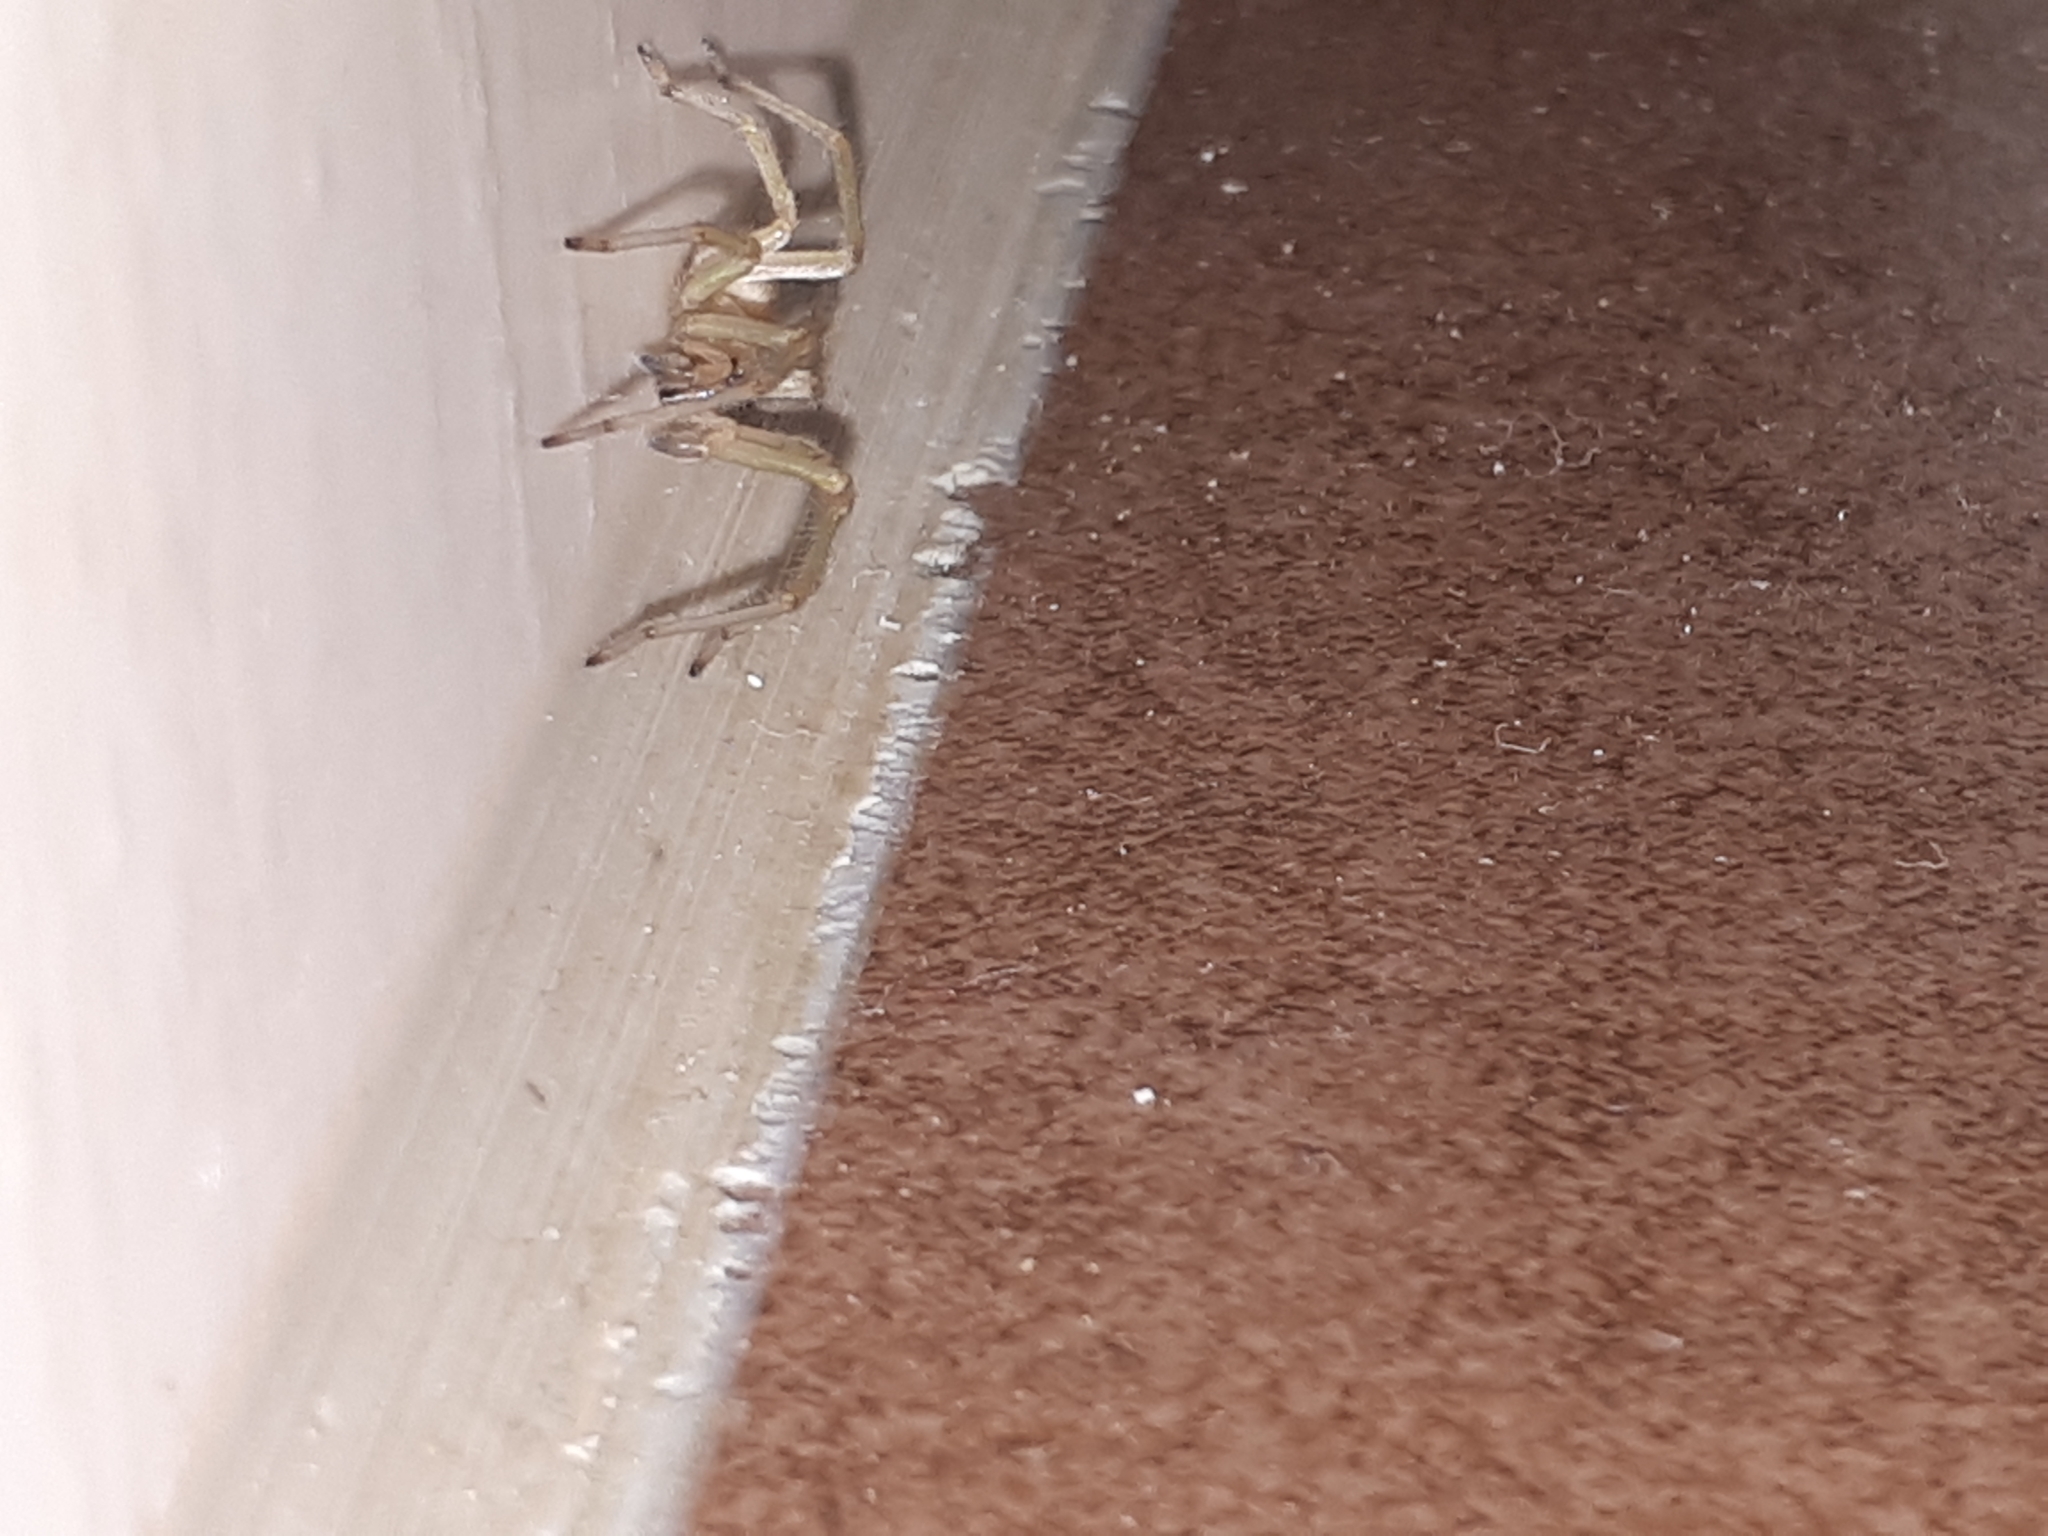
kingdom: Animalia
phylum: Arthropoda
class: Arachnida
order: Araneae
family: Cheiracanthiidae
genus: Cheiracanthium
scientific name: Cheiracanthium mildei
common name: Northern yellow sac spider
